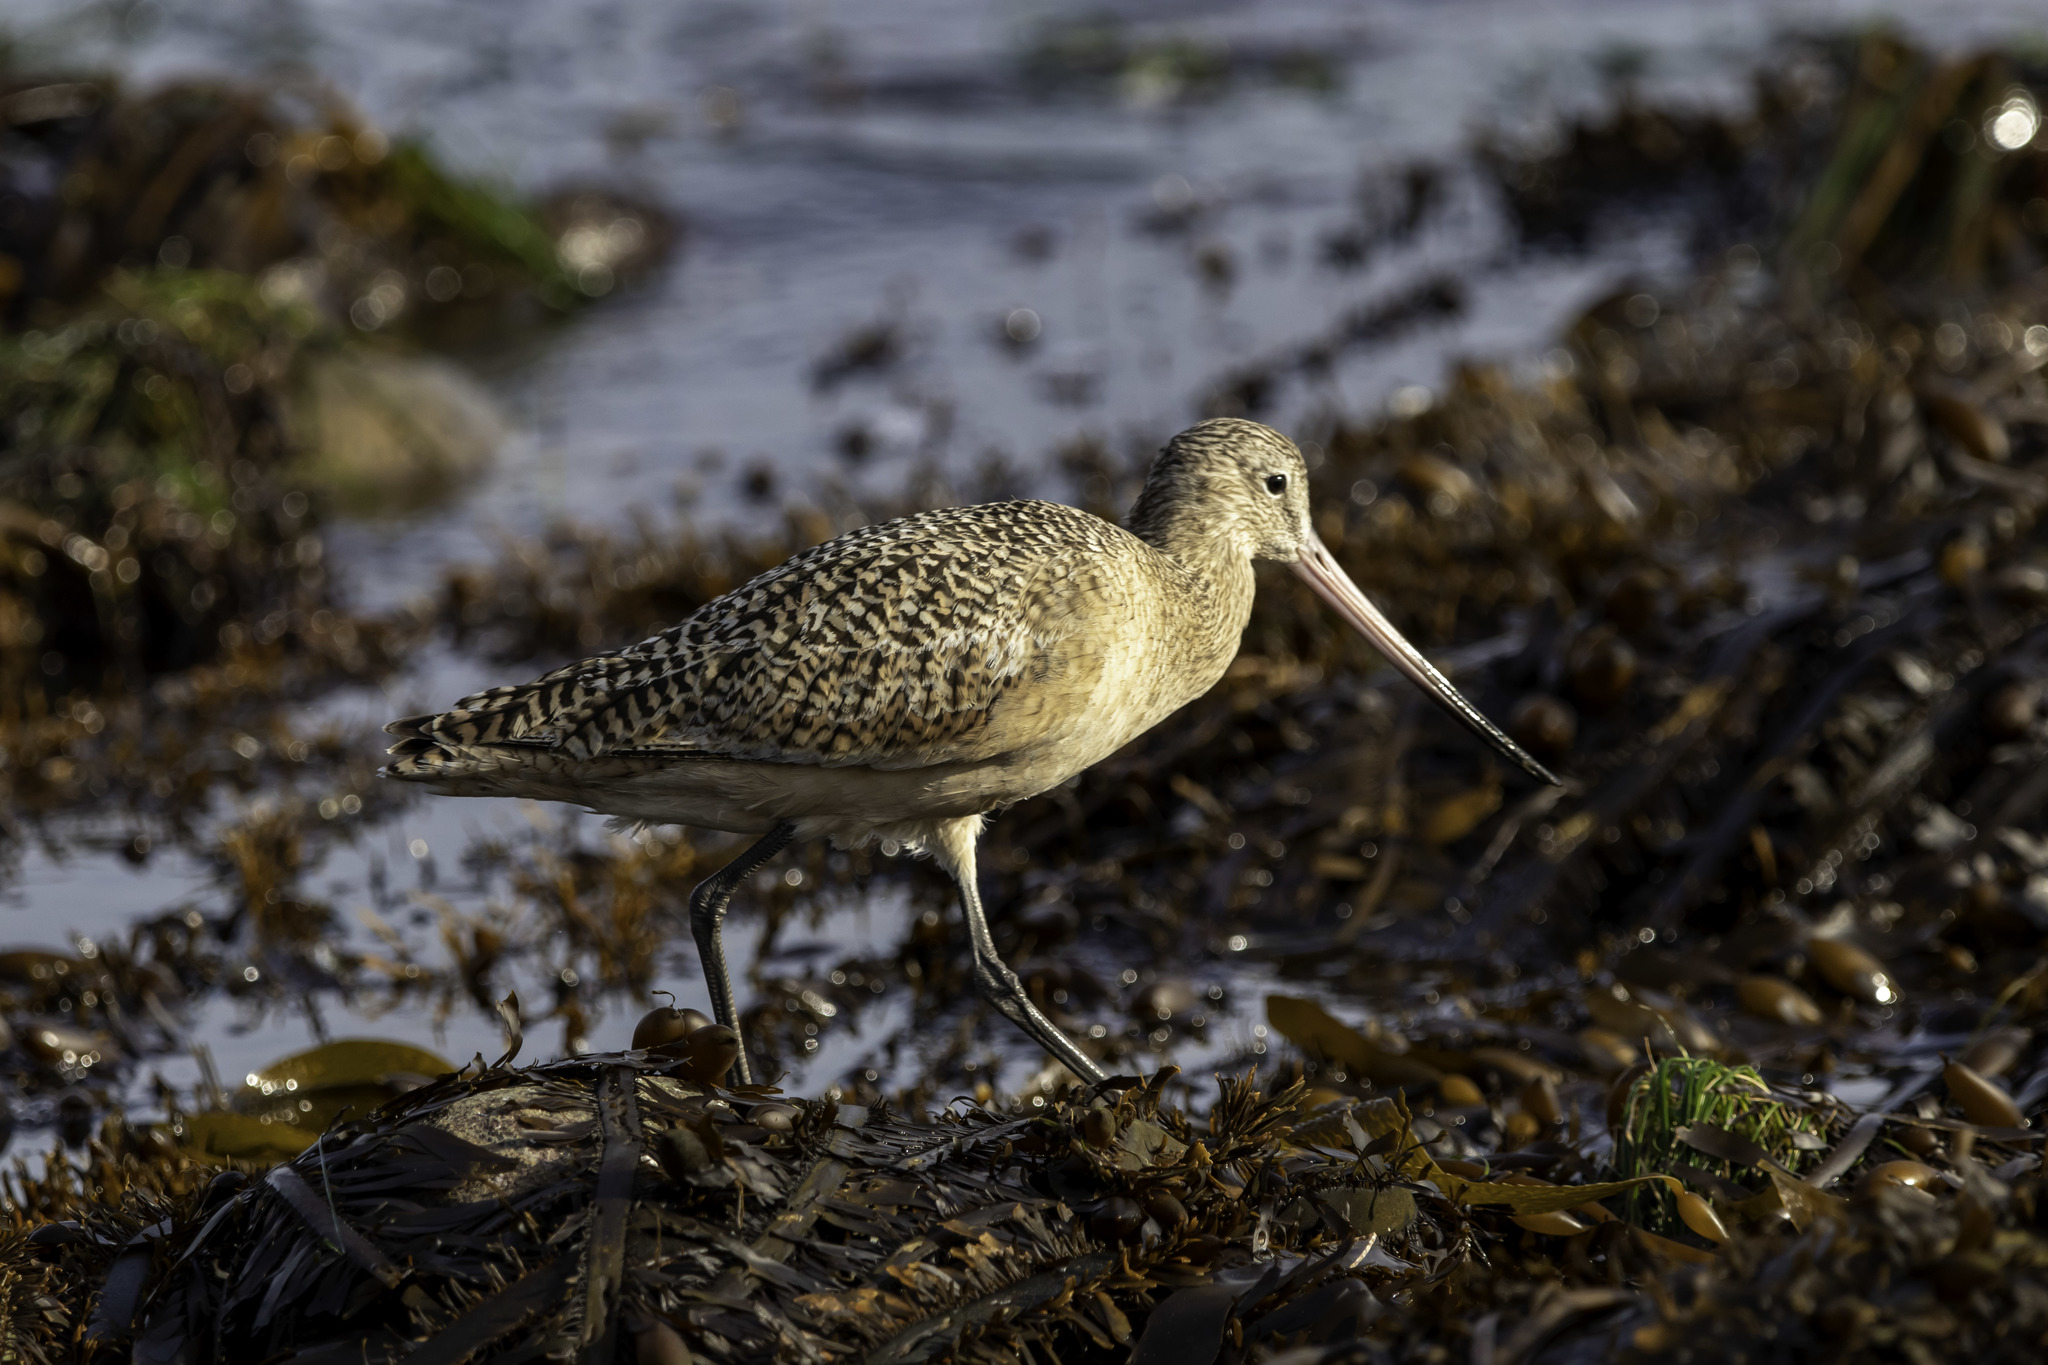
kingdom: Animalia
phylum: Chordata
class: Aves
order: Charadriiformes
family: Scolopacidae
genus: Limosa
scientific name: Limosa fedoa
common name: Marbled godwit
